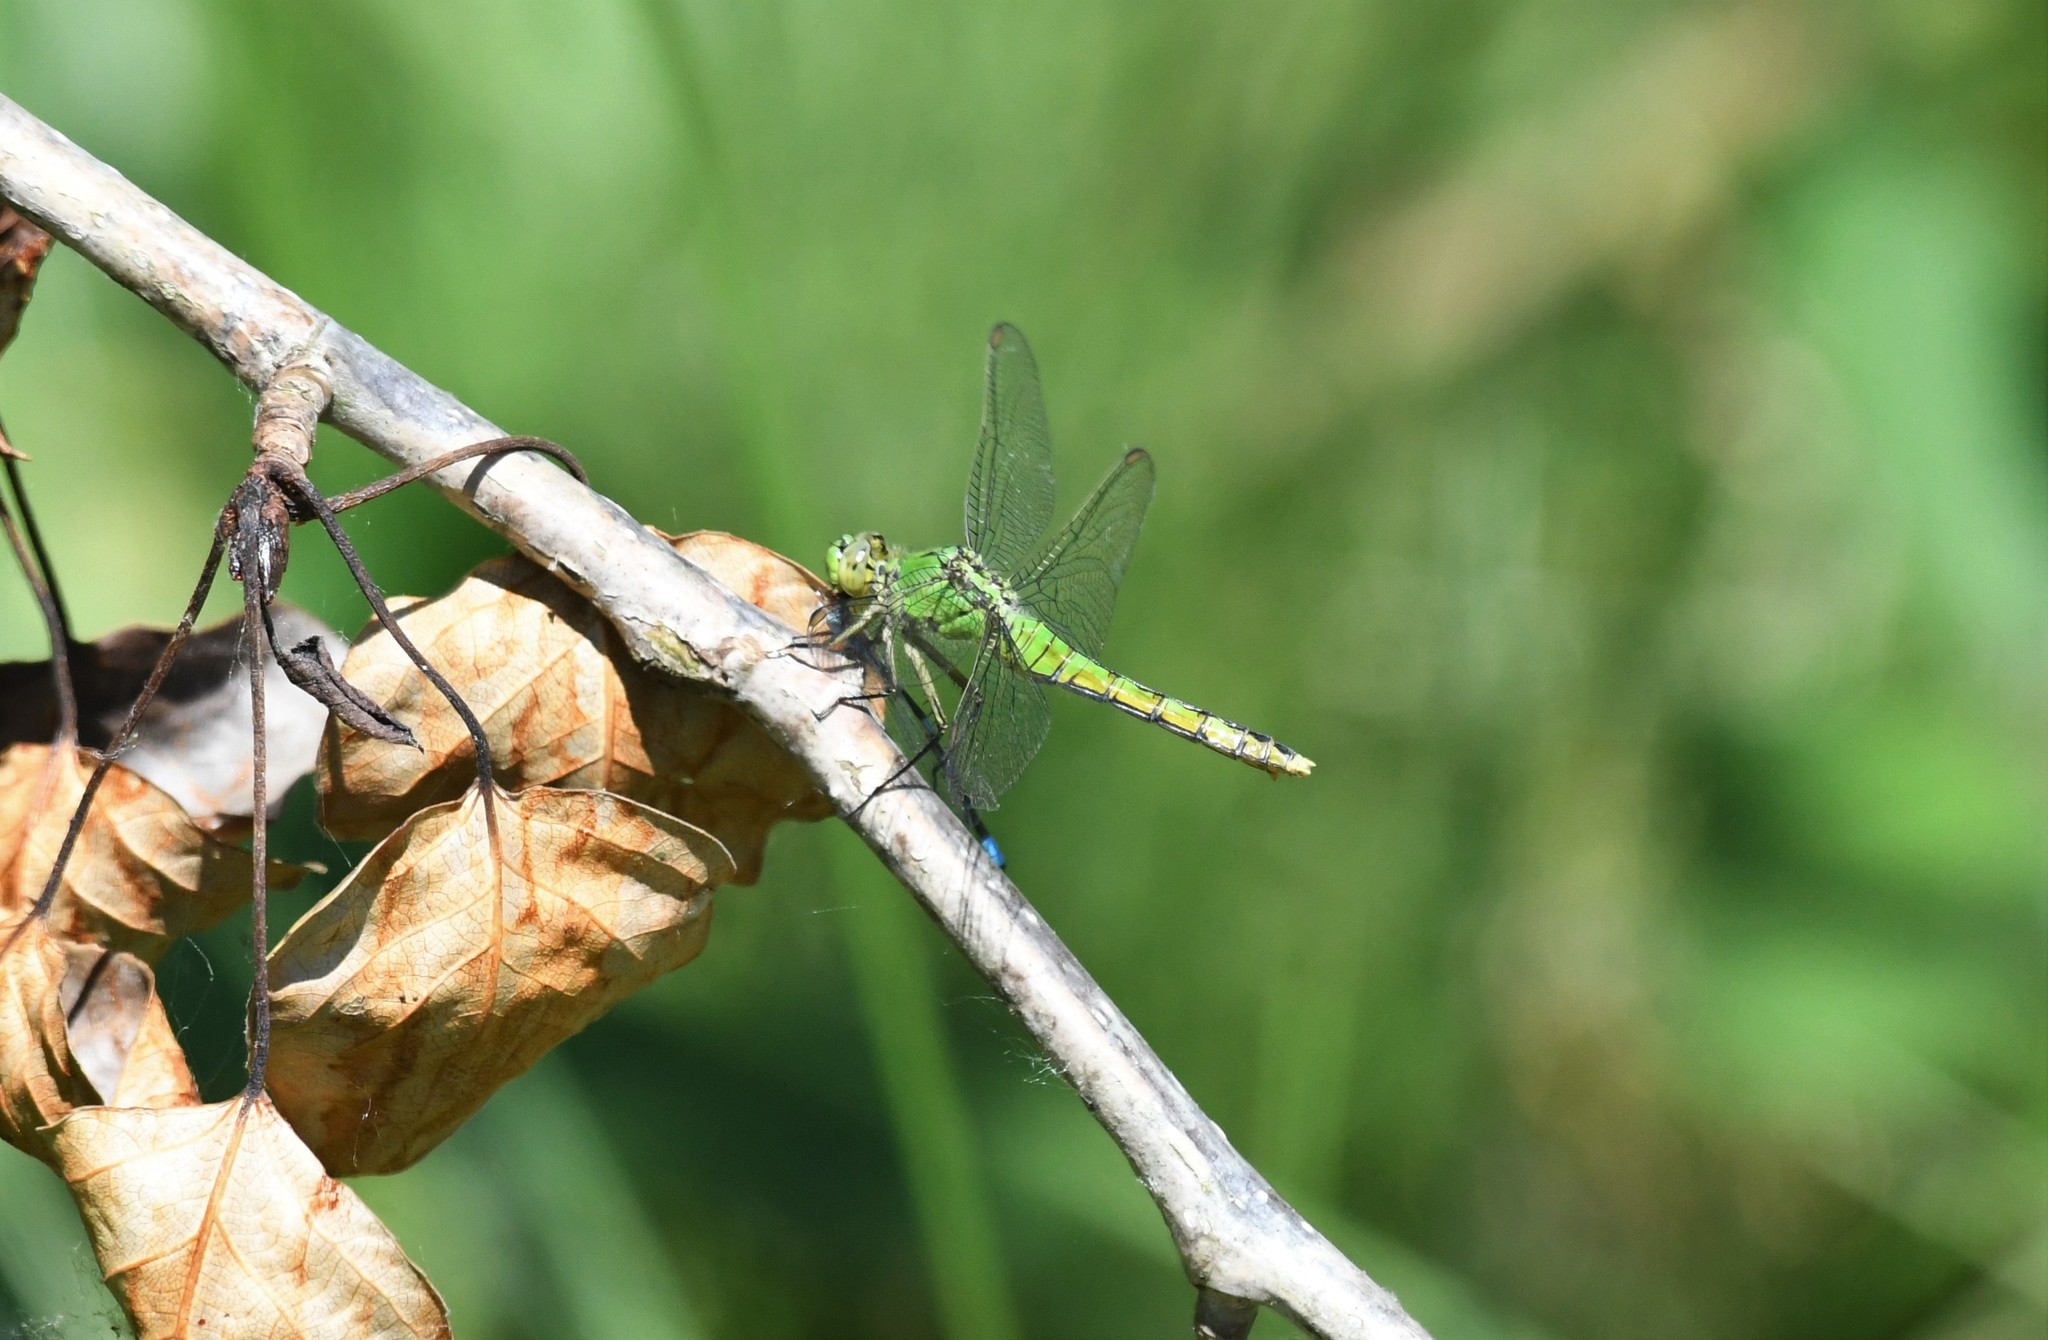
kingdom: Animalia
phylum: Arthropoda
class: Insecta
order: Odonata
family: Libellulidae
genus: Erythemis
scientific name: Erythemis collocata
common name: Western pondhawk
